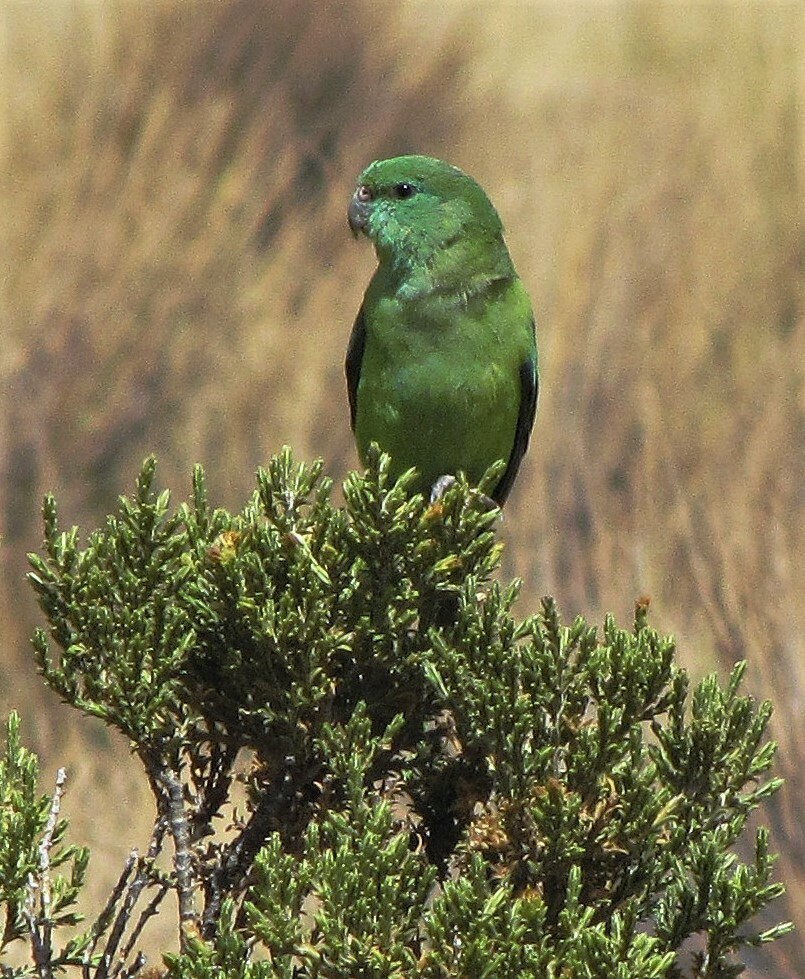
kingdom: Animalia
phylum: Chordata
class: Aves
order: Psittaciformes
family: Psittacidae
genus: Psilopsiagon
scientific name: Psilopsiagon aurifrons
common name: Mountain parakeet
